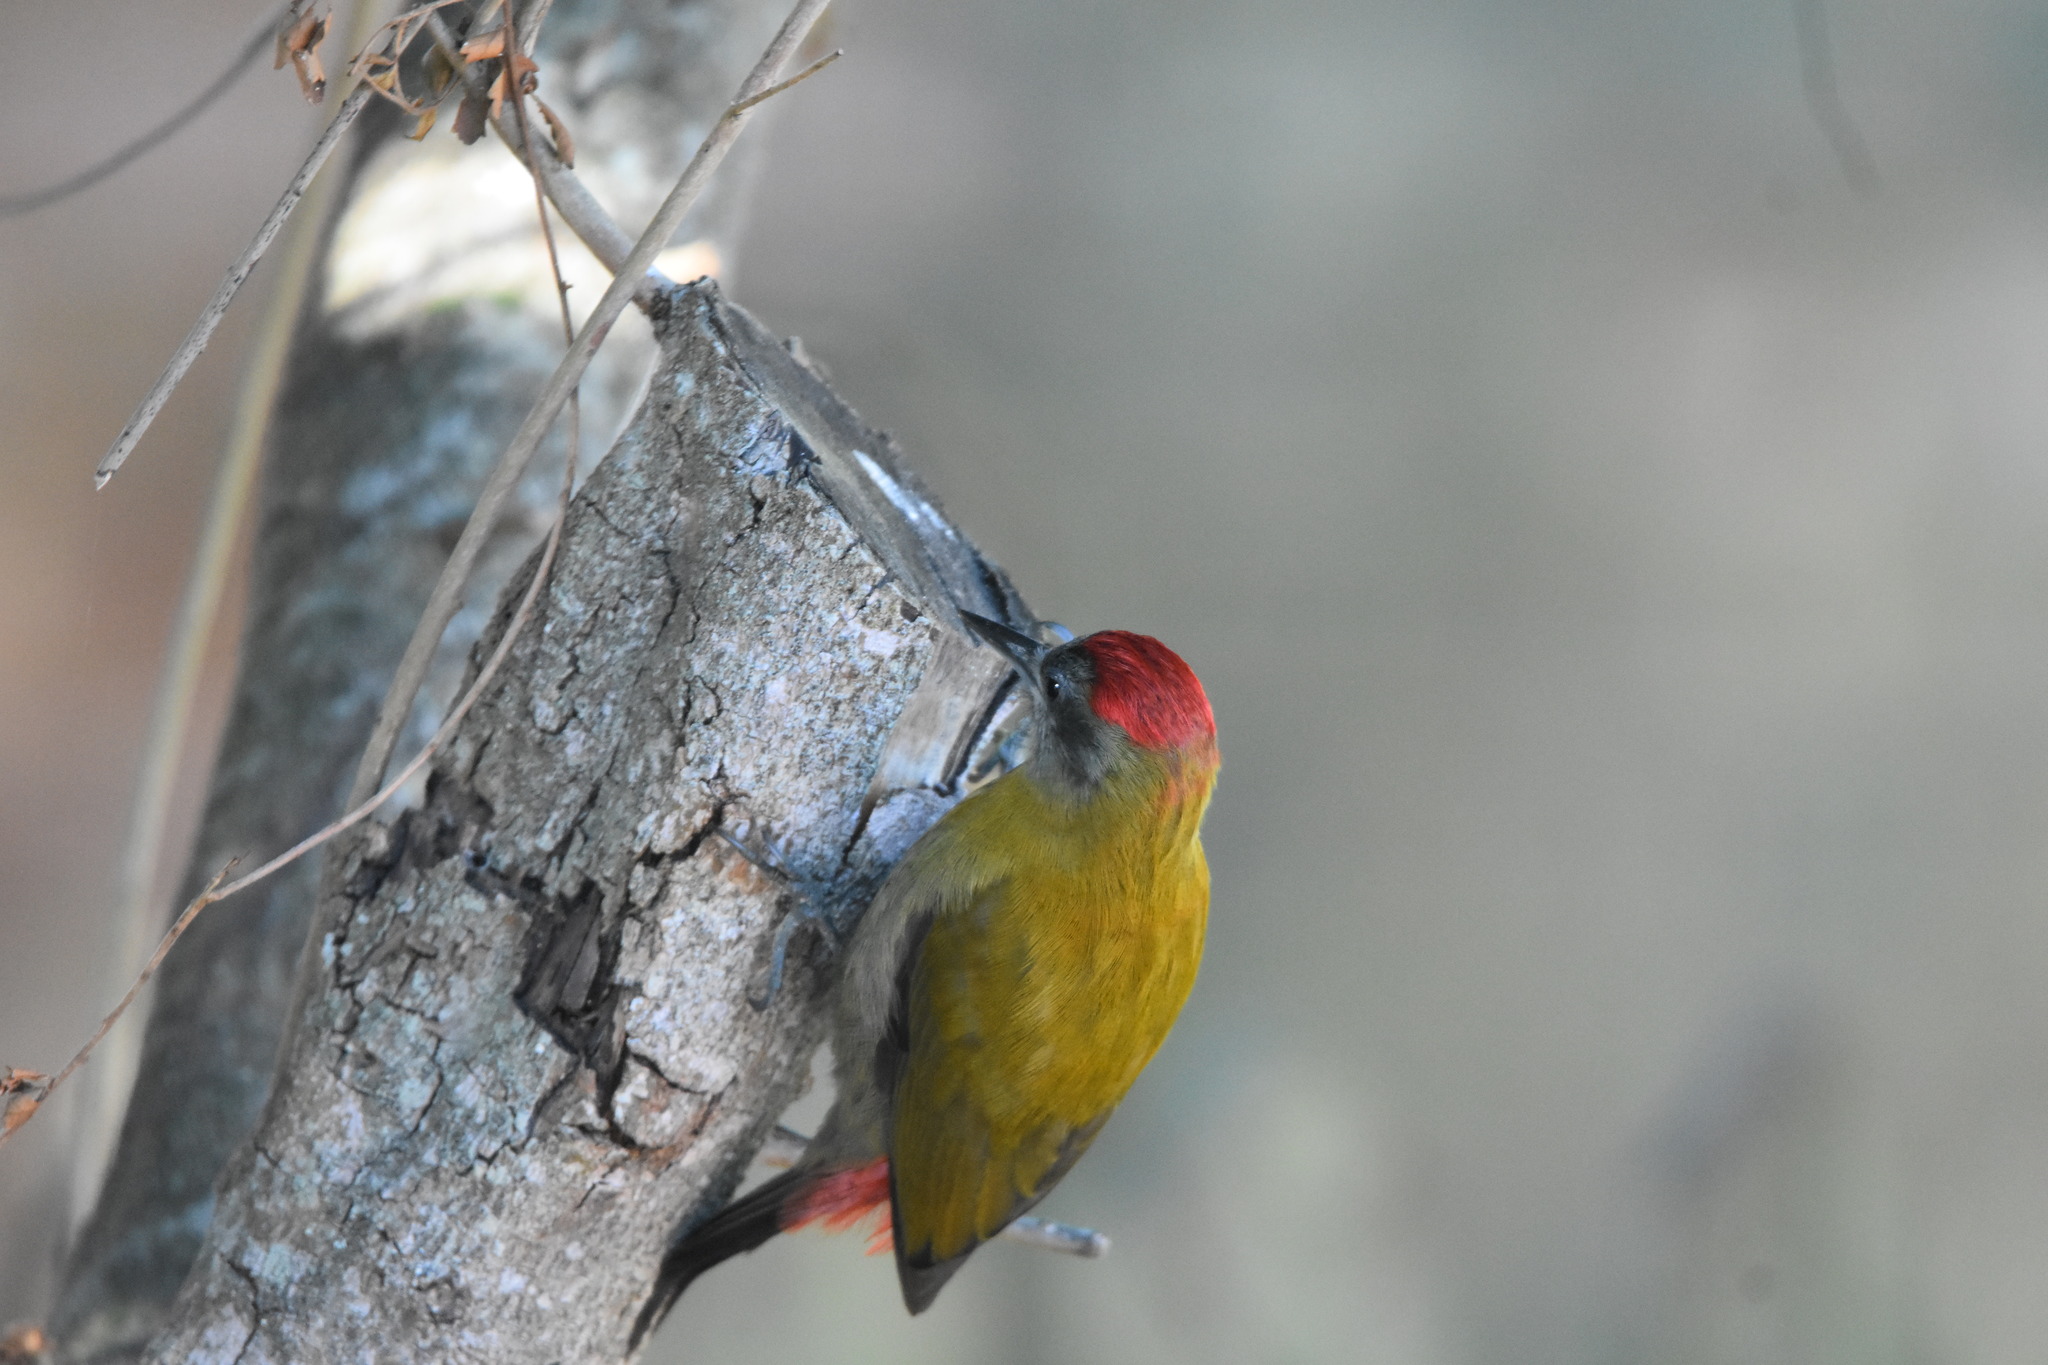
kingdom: Animalia
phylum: Chordata
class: Aves
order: Piciformes
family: Picidae
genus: Dendropicos
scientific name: Dendropicos griseocephalus
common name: Olive woodpecker
